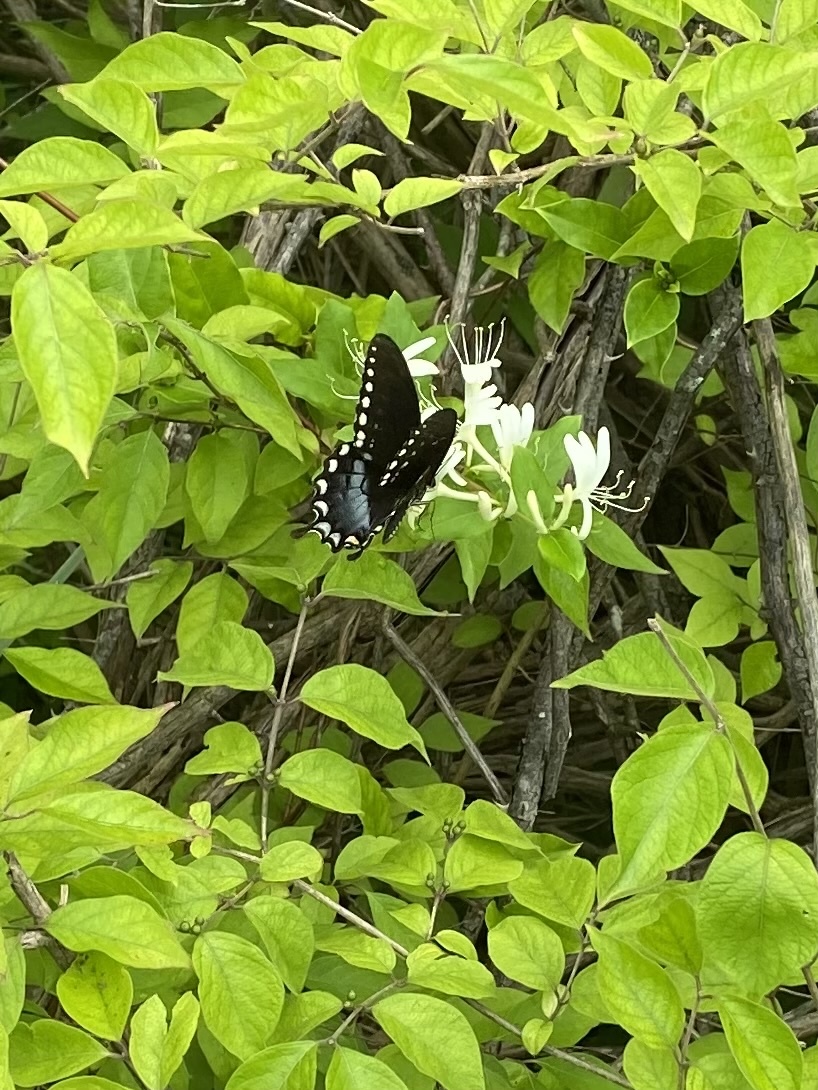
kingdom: Animalia
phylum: Arthropoda
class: Insecta
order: Lepidoptera
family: Papilionidae
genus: Papilio
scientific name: Papilio troilus
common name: Spicebush swallowtail
